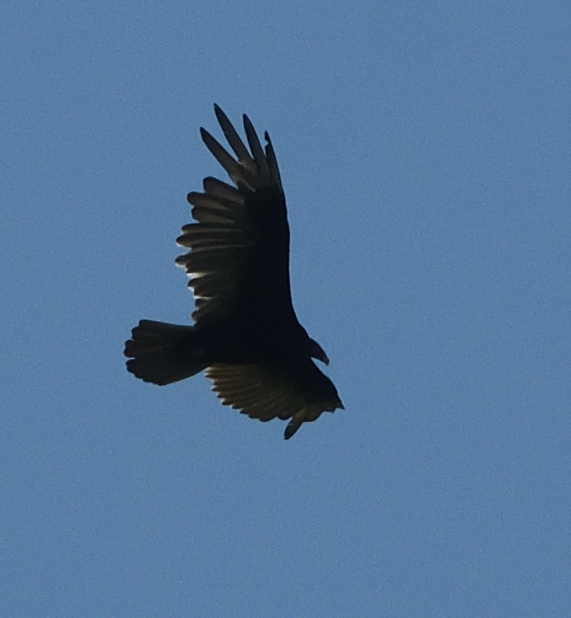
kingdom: Animalia
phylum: Chordata
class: Aves
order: Accipitriformes
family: Cathartidae
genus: Cathartes
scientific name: Cathartes aura
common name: Turkey vulture
